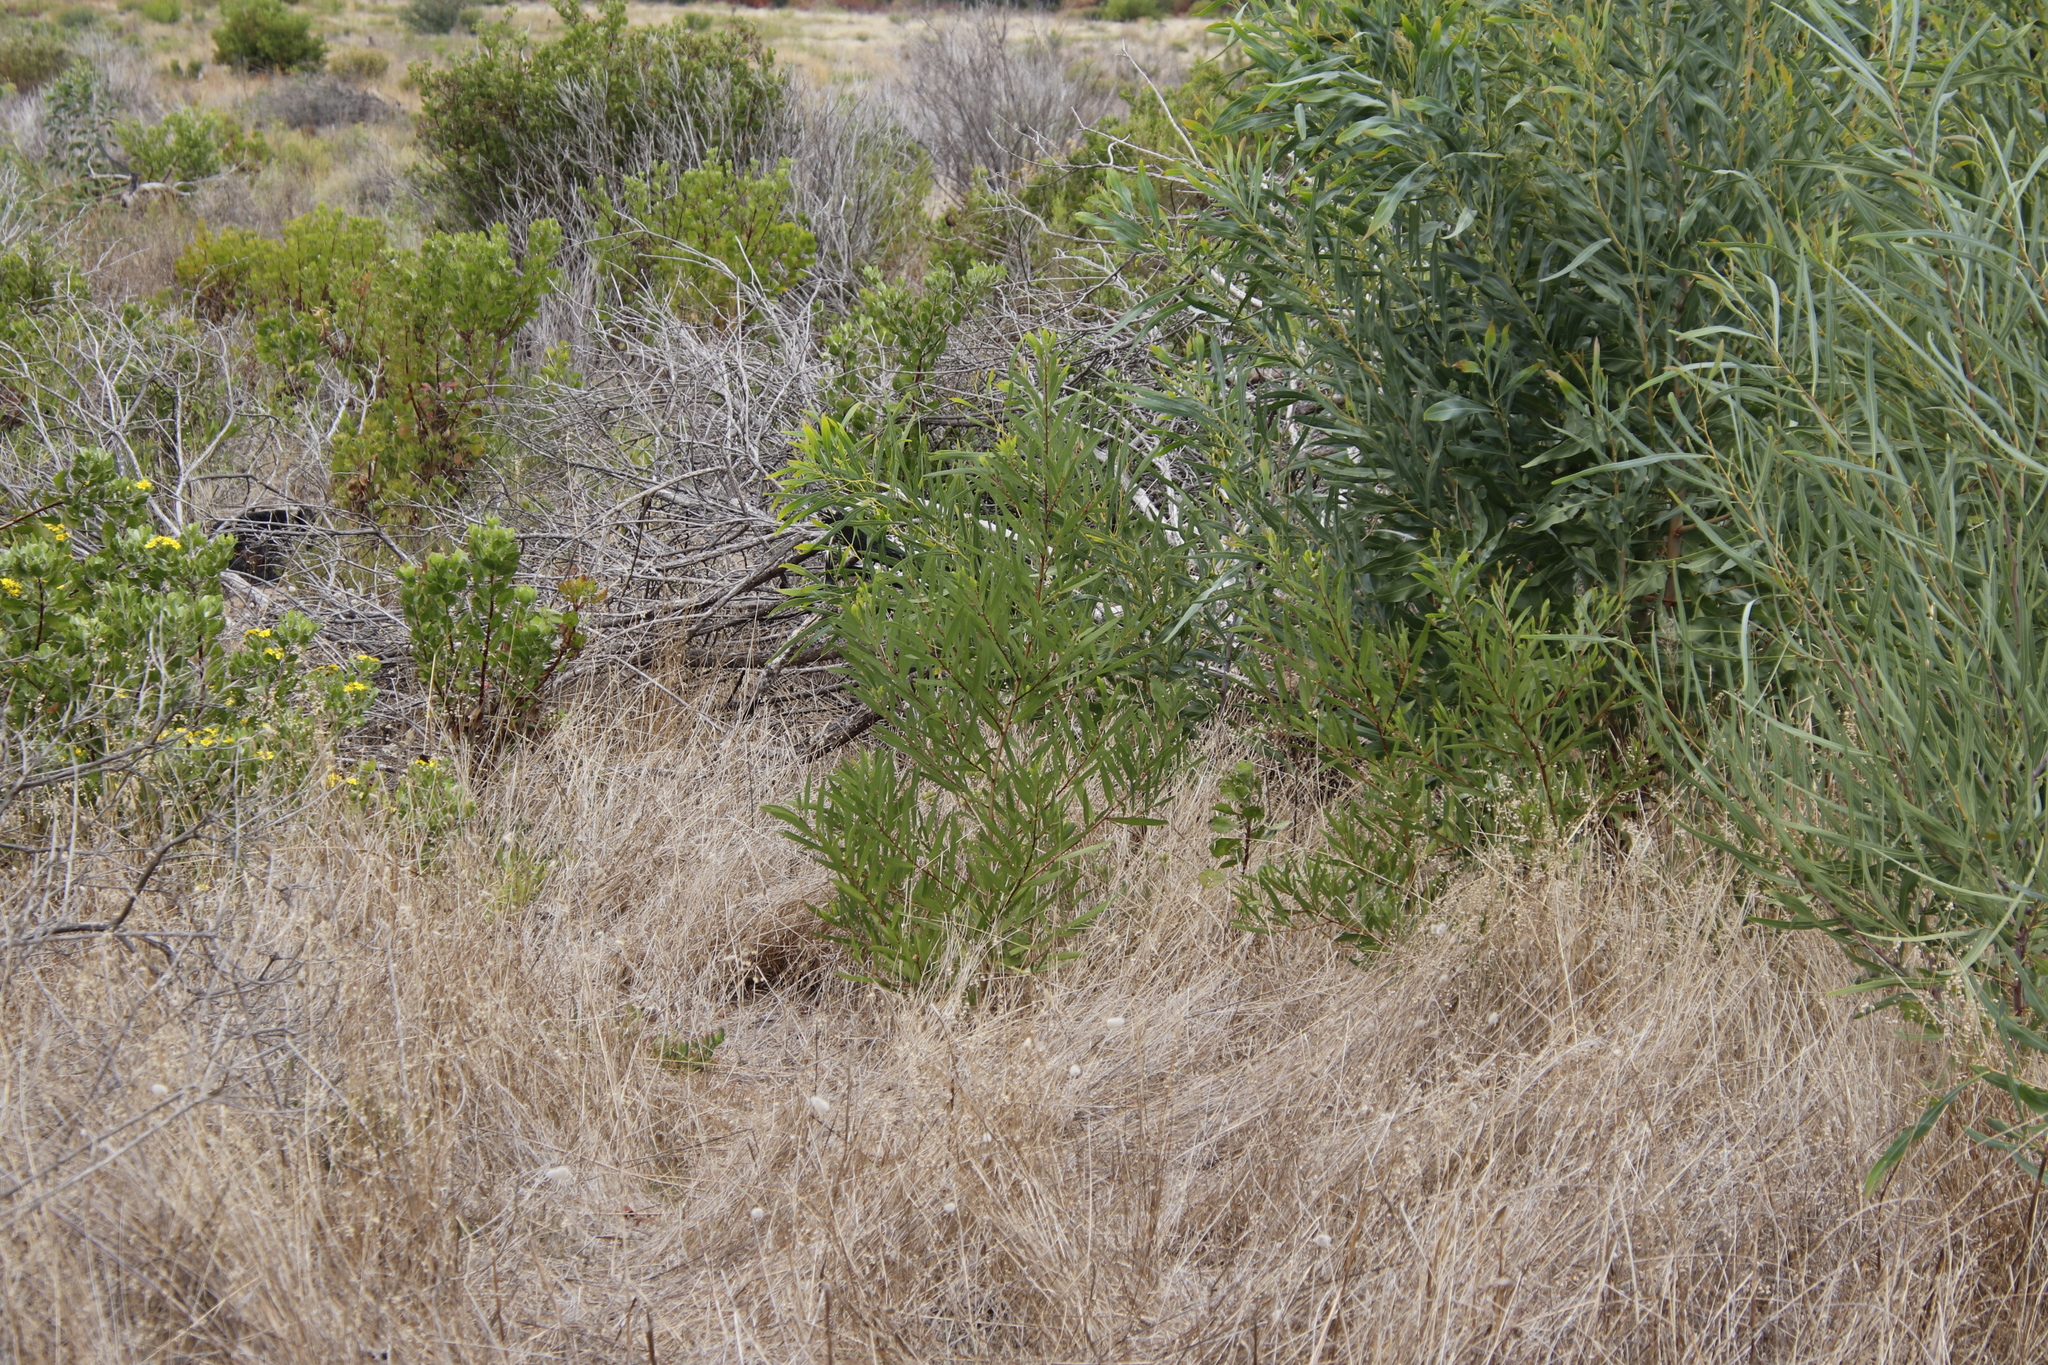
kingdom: Plantae
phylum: Tracheophyta
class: Magnoliopsida
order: Fabales
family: Fabaceae
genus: Acacia
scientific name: Acacia longifolia
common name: Sydney golden wattle
